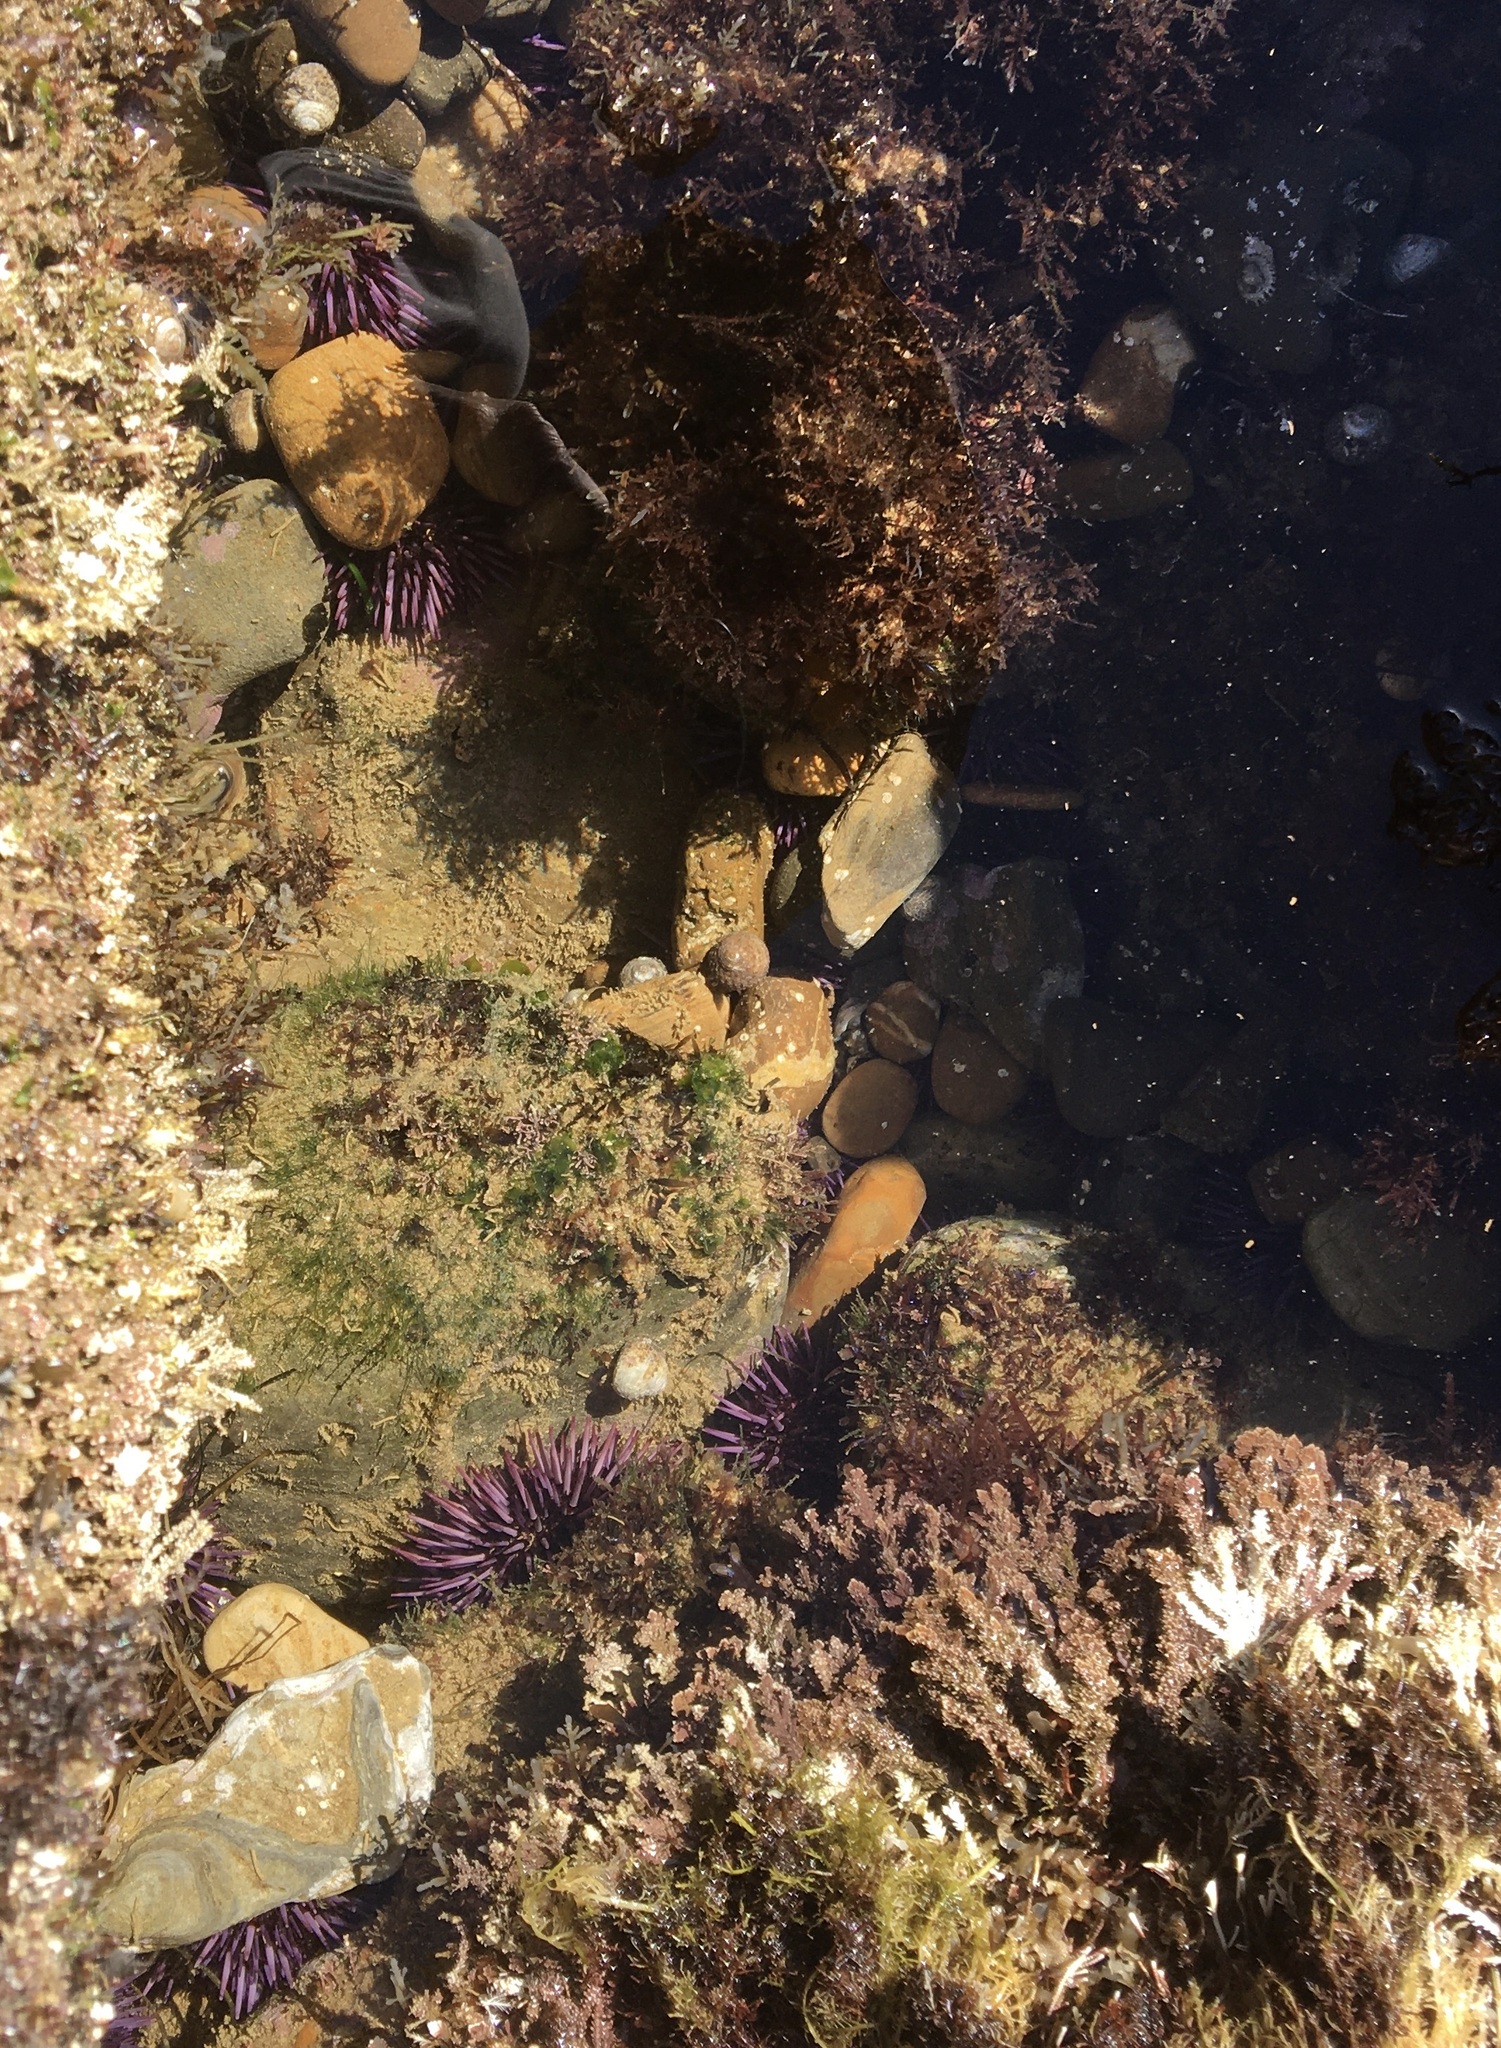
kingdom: Animalia
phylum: Echinodermata
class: Echinoidea
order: Camarodonta
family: Strongylocentrotidae
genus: Strongylocentrotus
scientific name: Strongylocentrotus purpuratus
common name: Purple sea urchin
